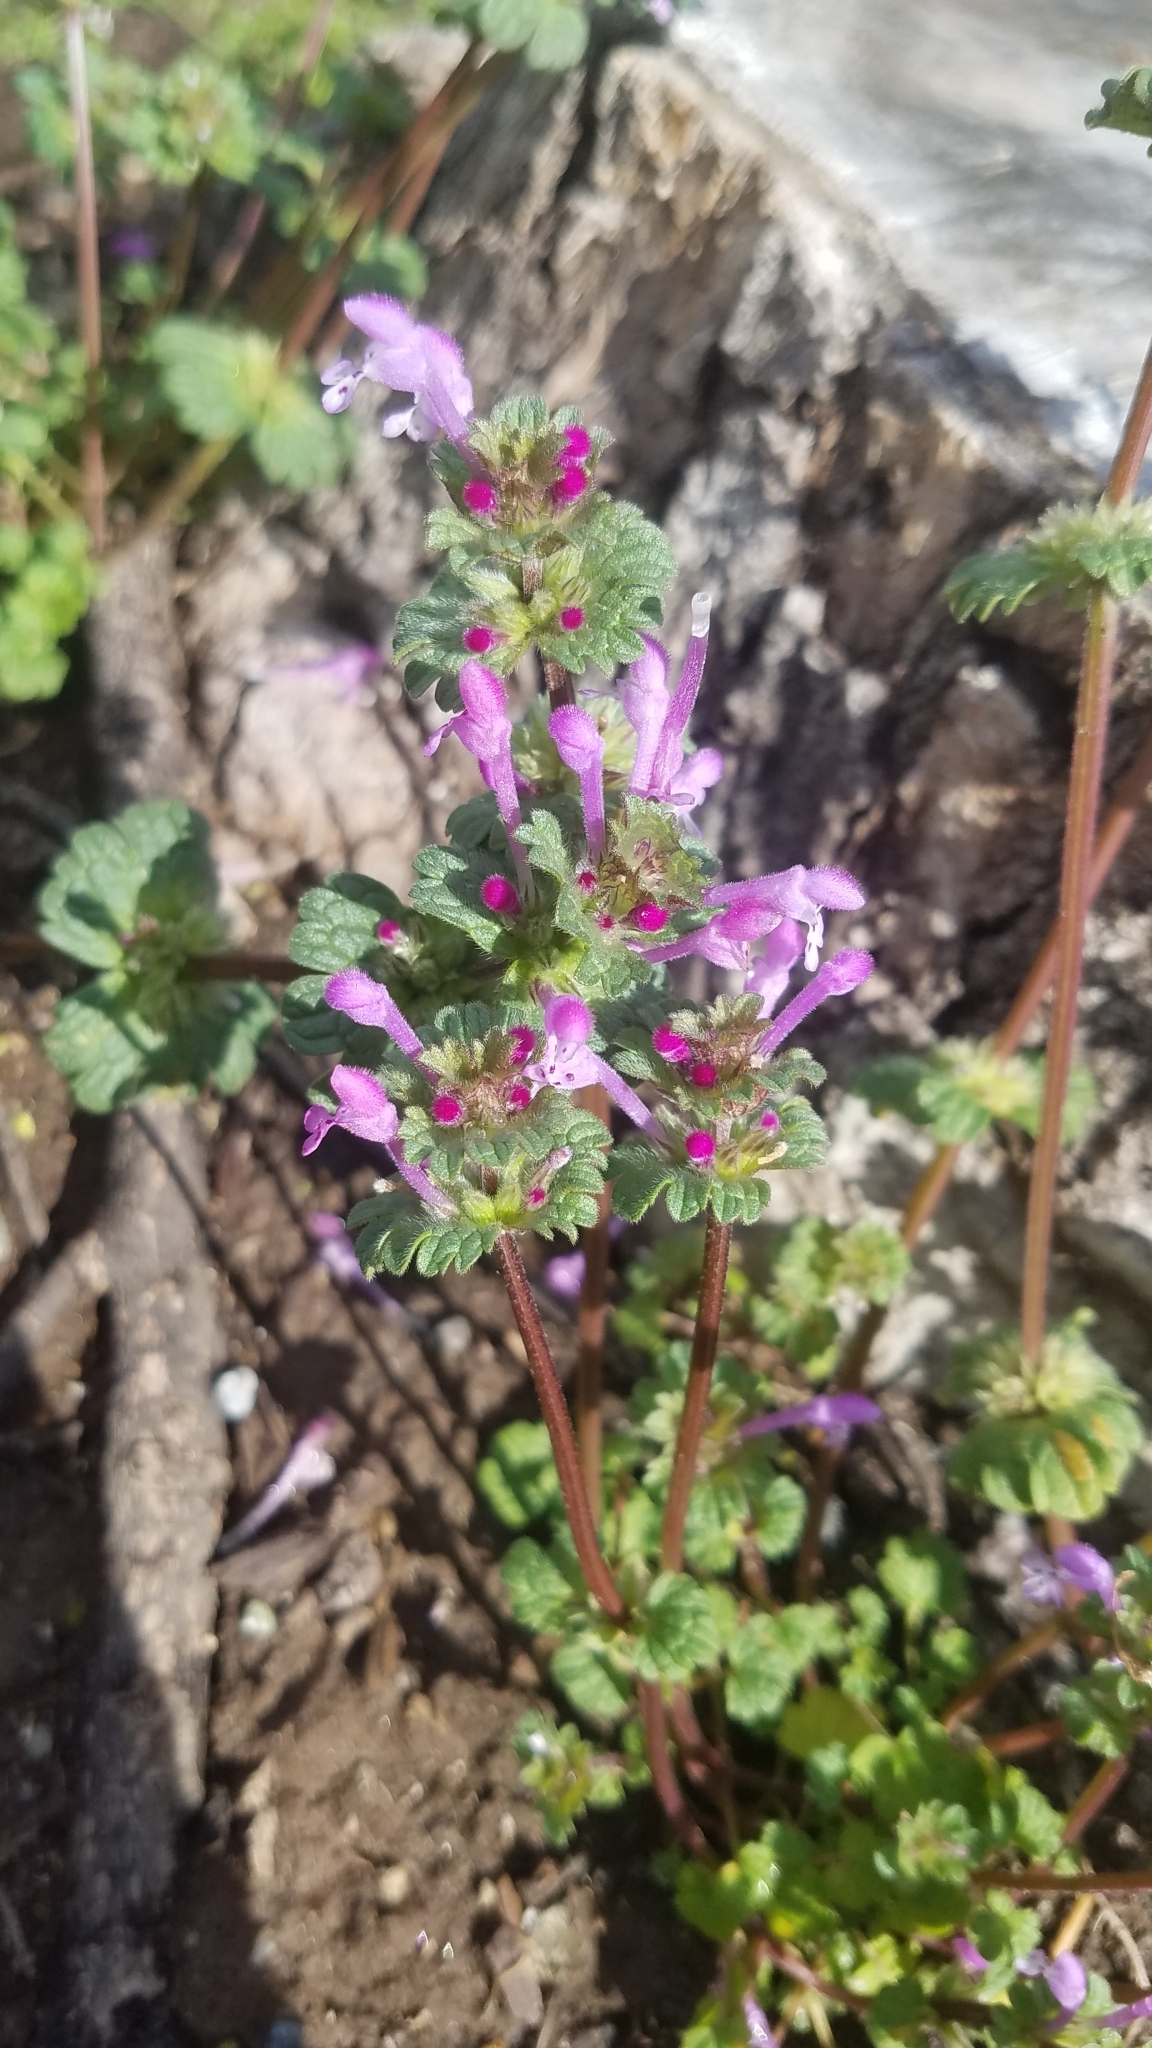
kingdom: Plantae
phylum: Tracheophyta
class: Magnoliopsida
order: Lamiales
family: Lamiaceae
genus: Lamium
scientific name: Lamium amplexicaule
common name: Henbit dead-nettle
